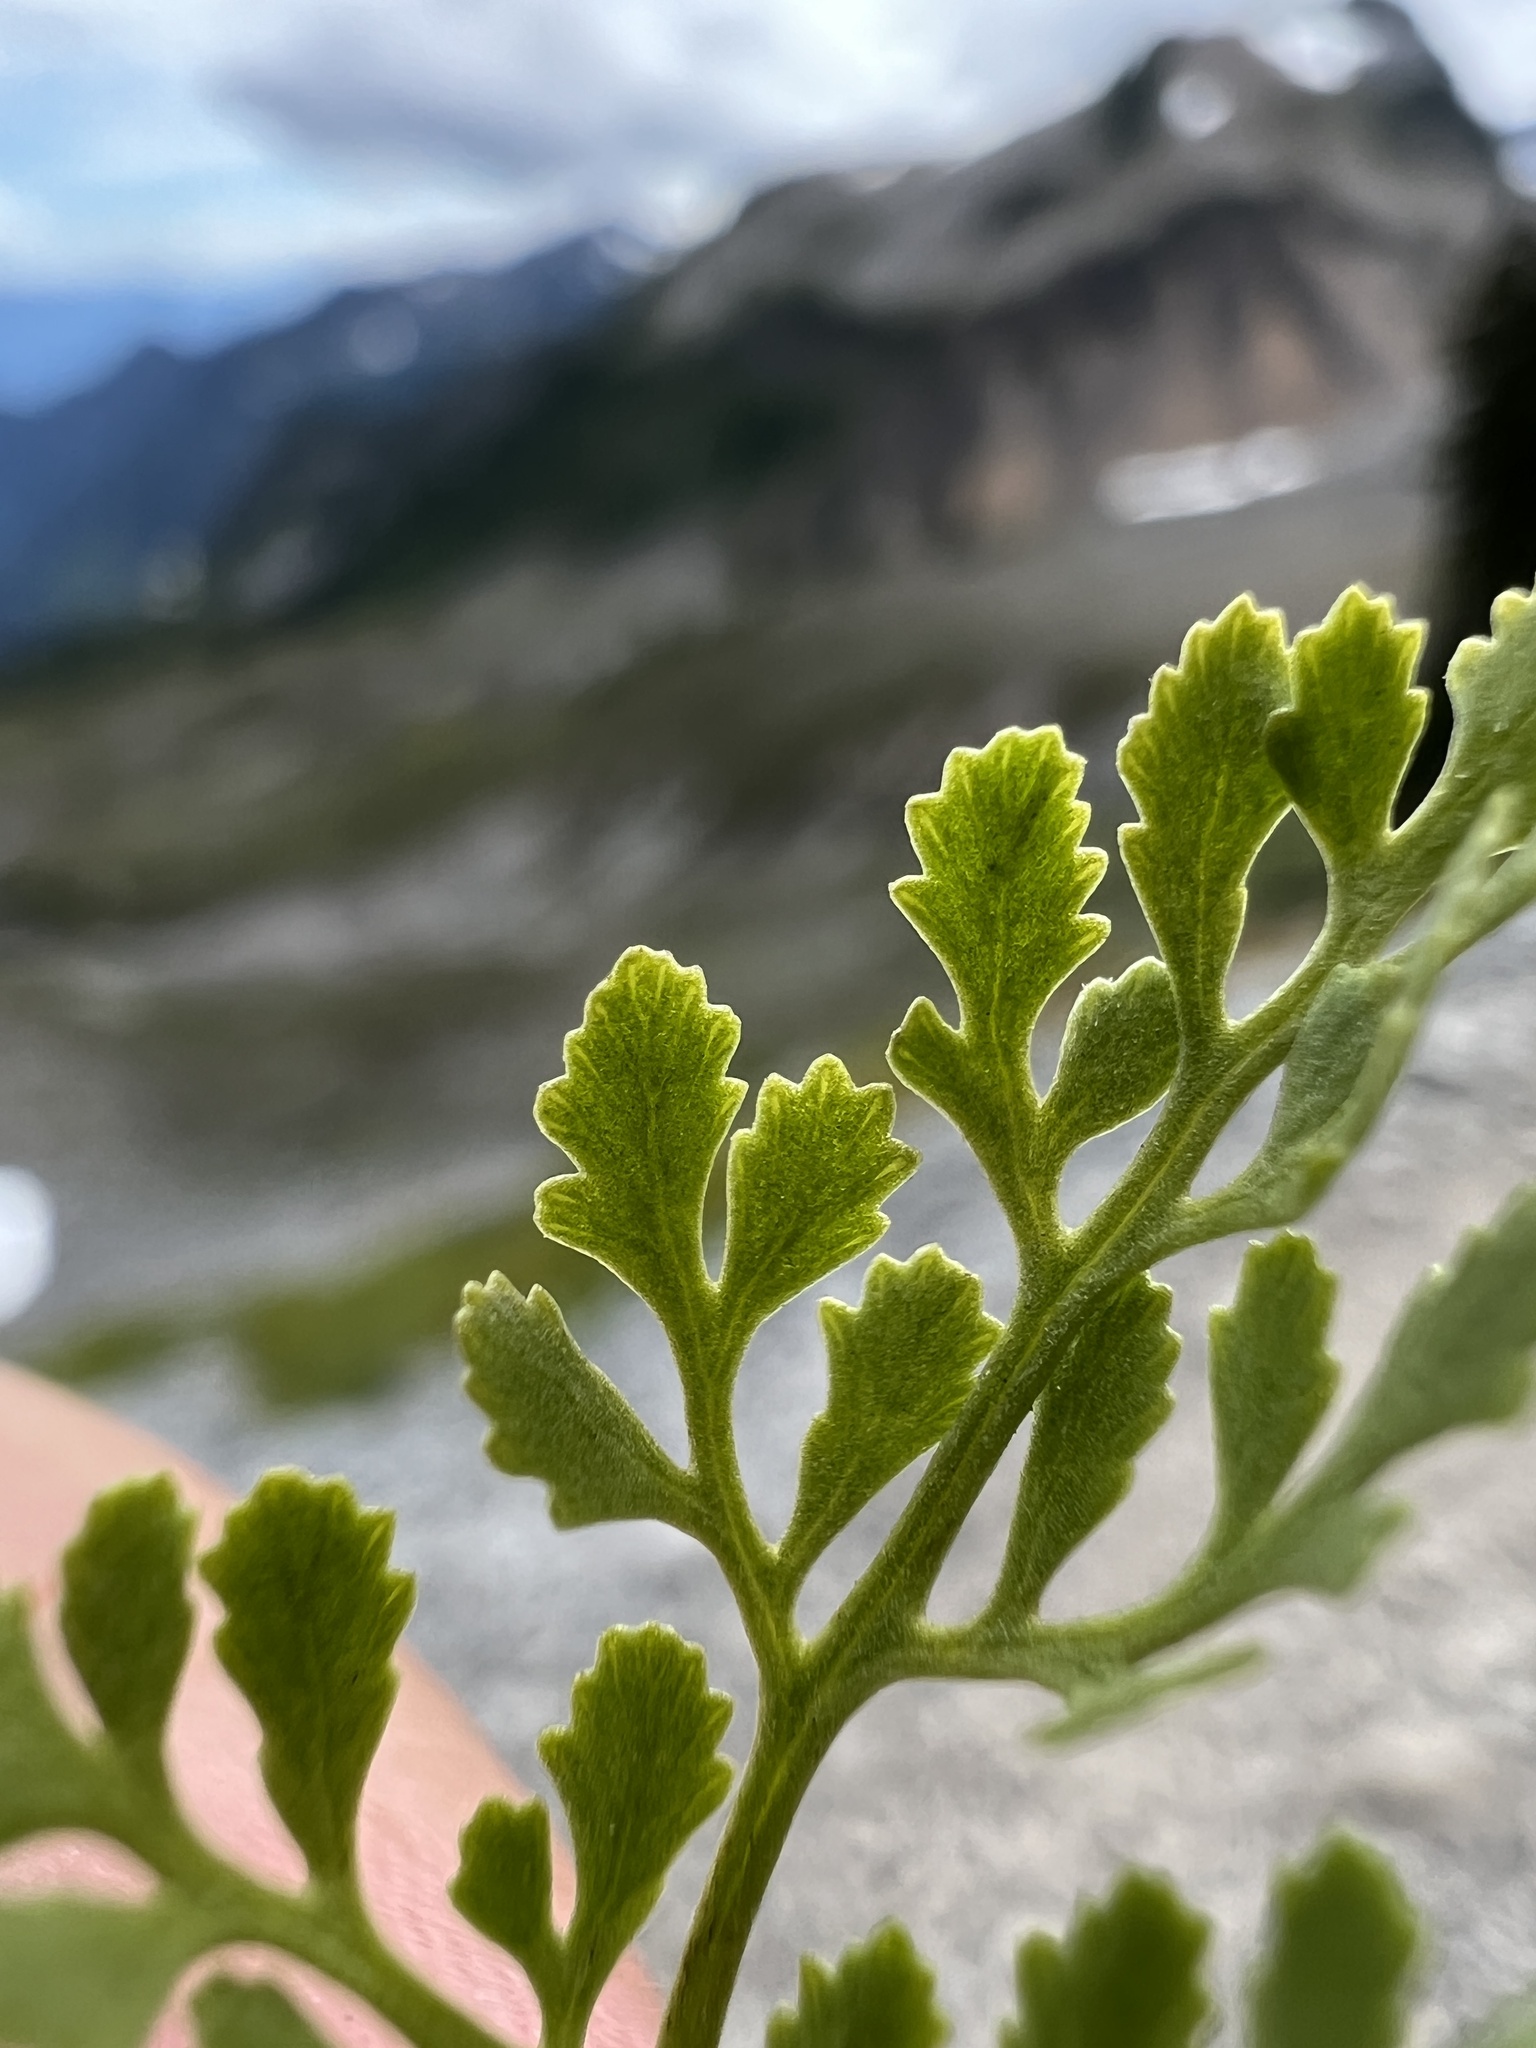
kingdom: Plantae
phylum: Tracheophyta
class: Polypodiopsida
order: Polypodiales
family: Pteridaceae
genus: Cryptogramma
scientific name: Cryptogramma cascadensis
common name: Cascade parsley fern
